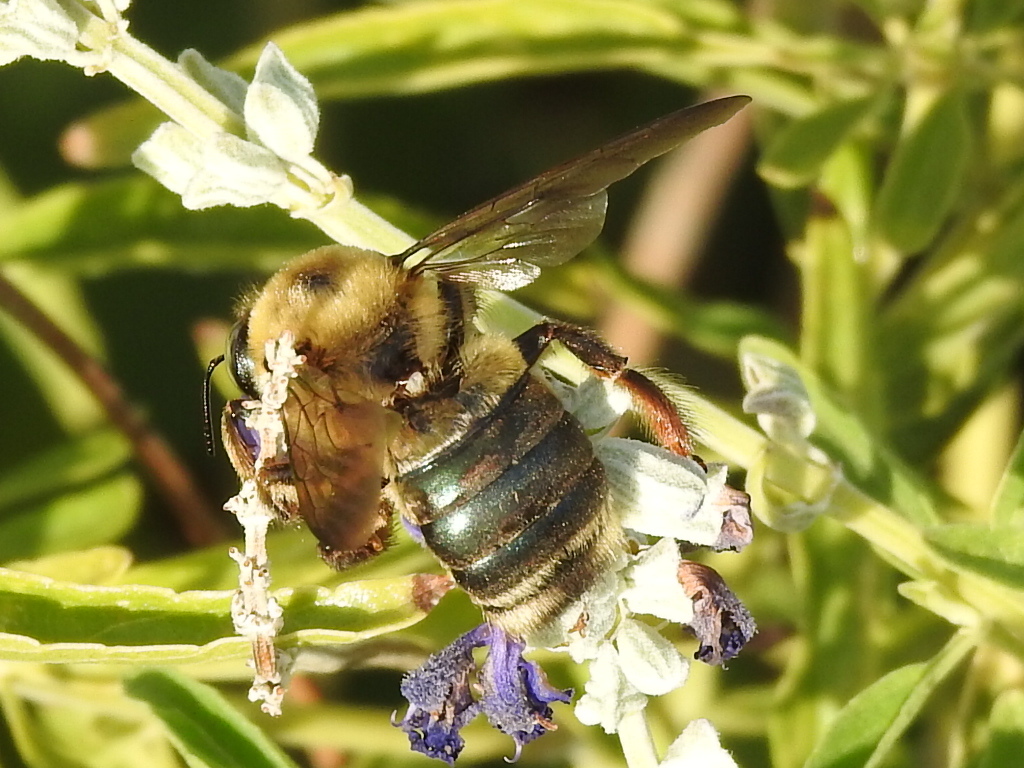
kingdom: Animalia
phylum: Arthropoda
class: Insecta
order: Hymenoptera
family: Apidae
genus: Xylocopa
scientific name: Xylocopa virginica
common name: Carpenter bee
